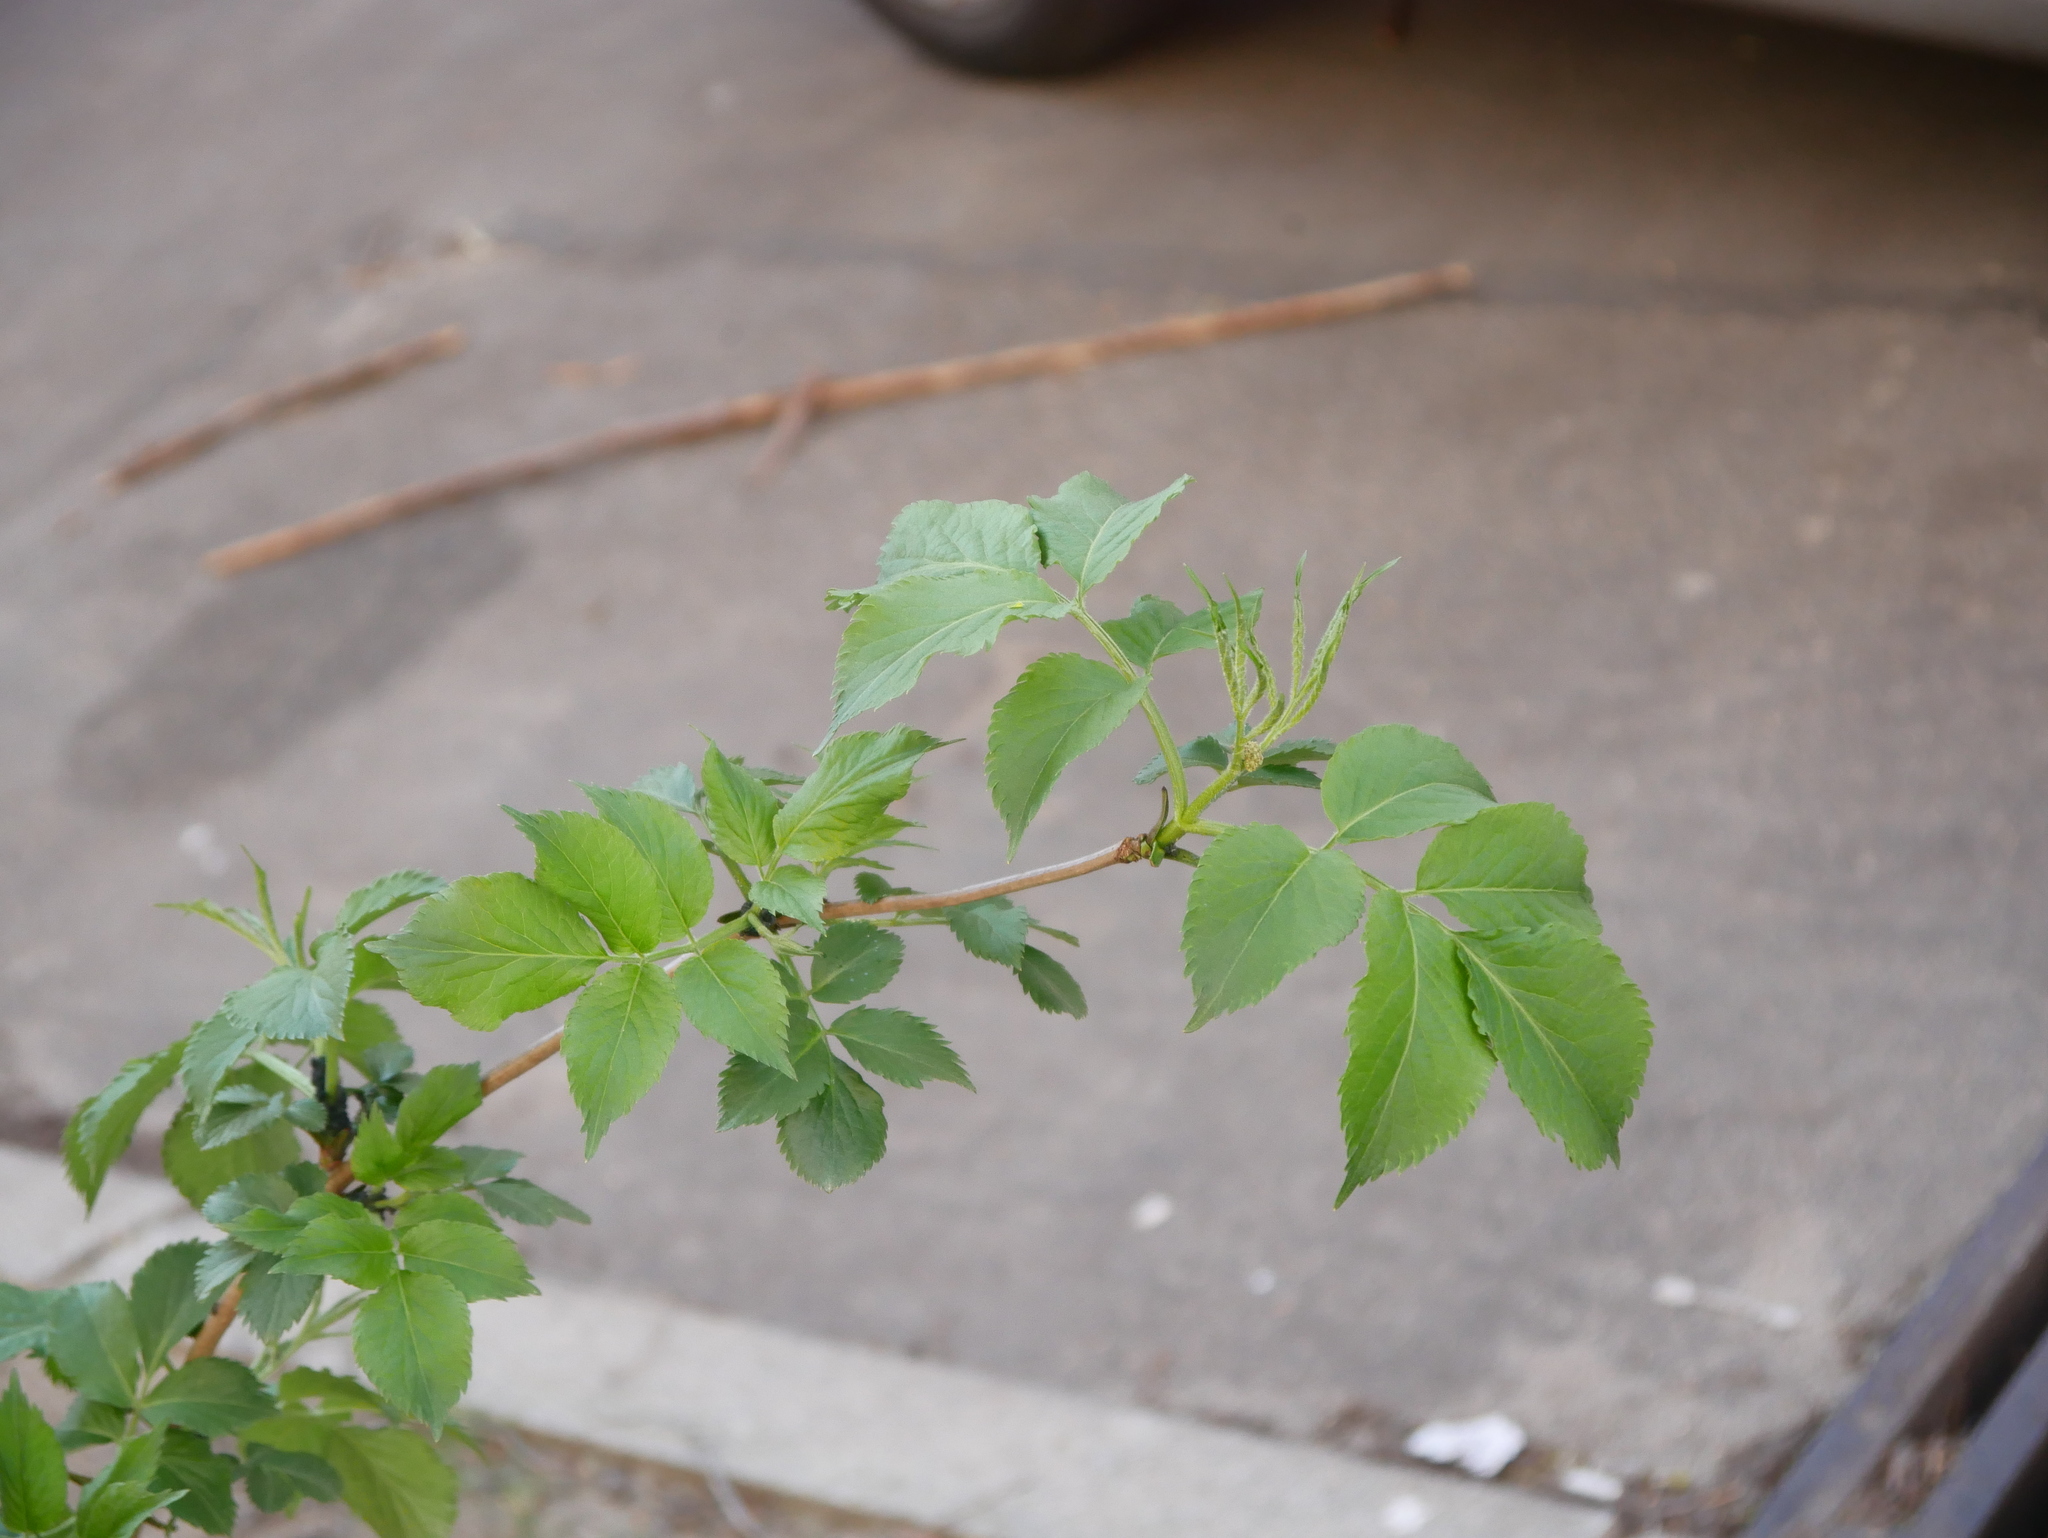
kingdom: Plantae
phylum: Tracheophyta
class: Magnoliopsida
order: Dipsacales
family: Viburnaceae
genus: Sambucus
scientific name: Sambucus nigra
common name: Elder
